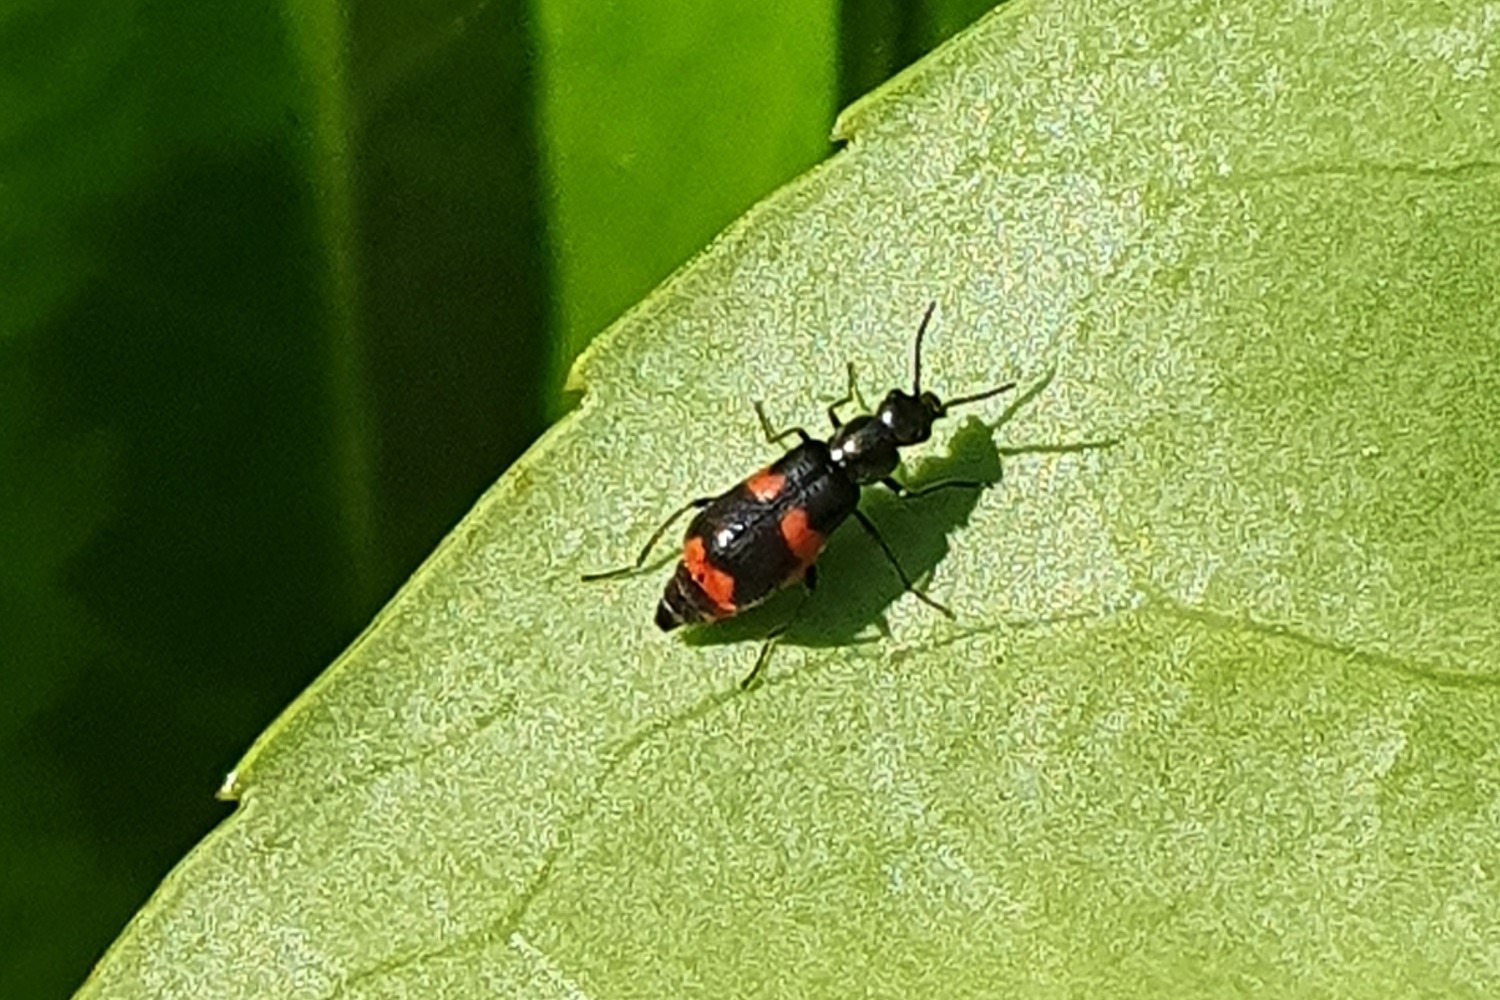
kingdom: Animalia
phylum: Arthropoda
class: Insecta
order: Coleoptera
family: Melyridae
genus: Anthocomus
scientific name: Anthocomus fasciatus
